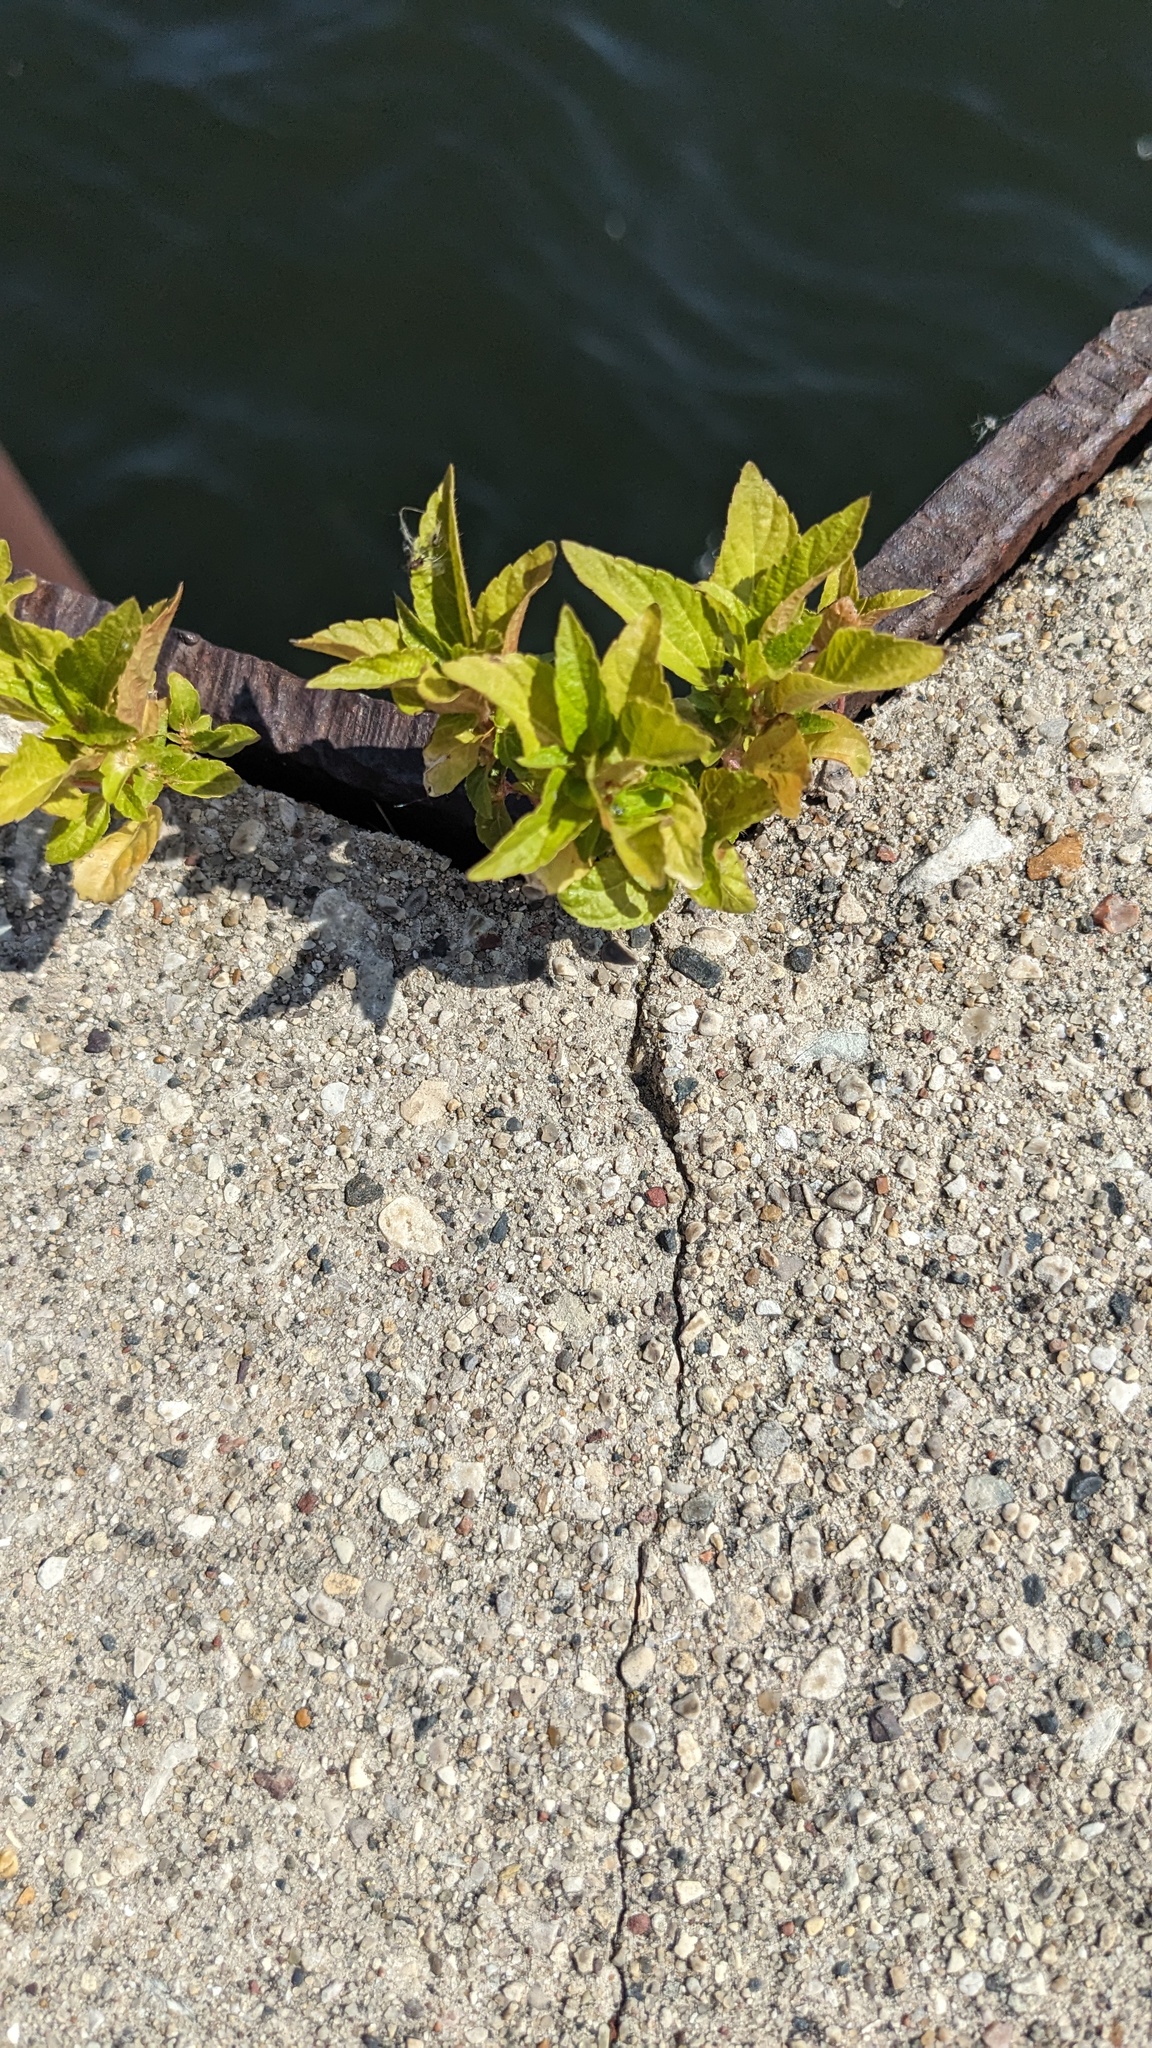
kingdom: Plantae
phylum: Tracheophyta
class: Magnoliopsida
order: Malpighiales
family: Euphorbiaceae
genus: Acalypha
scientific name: Acalypha rhomboidea
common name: Rhombic copperleaf
